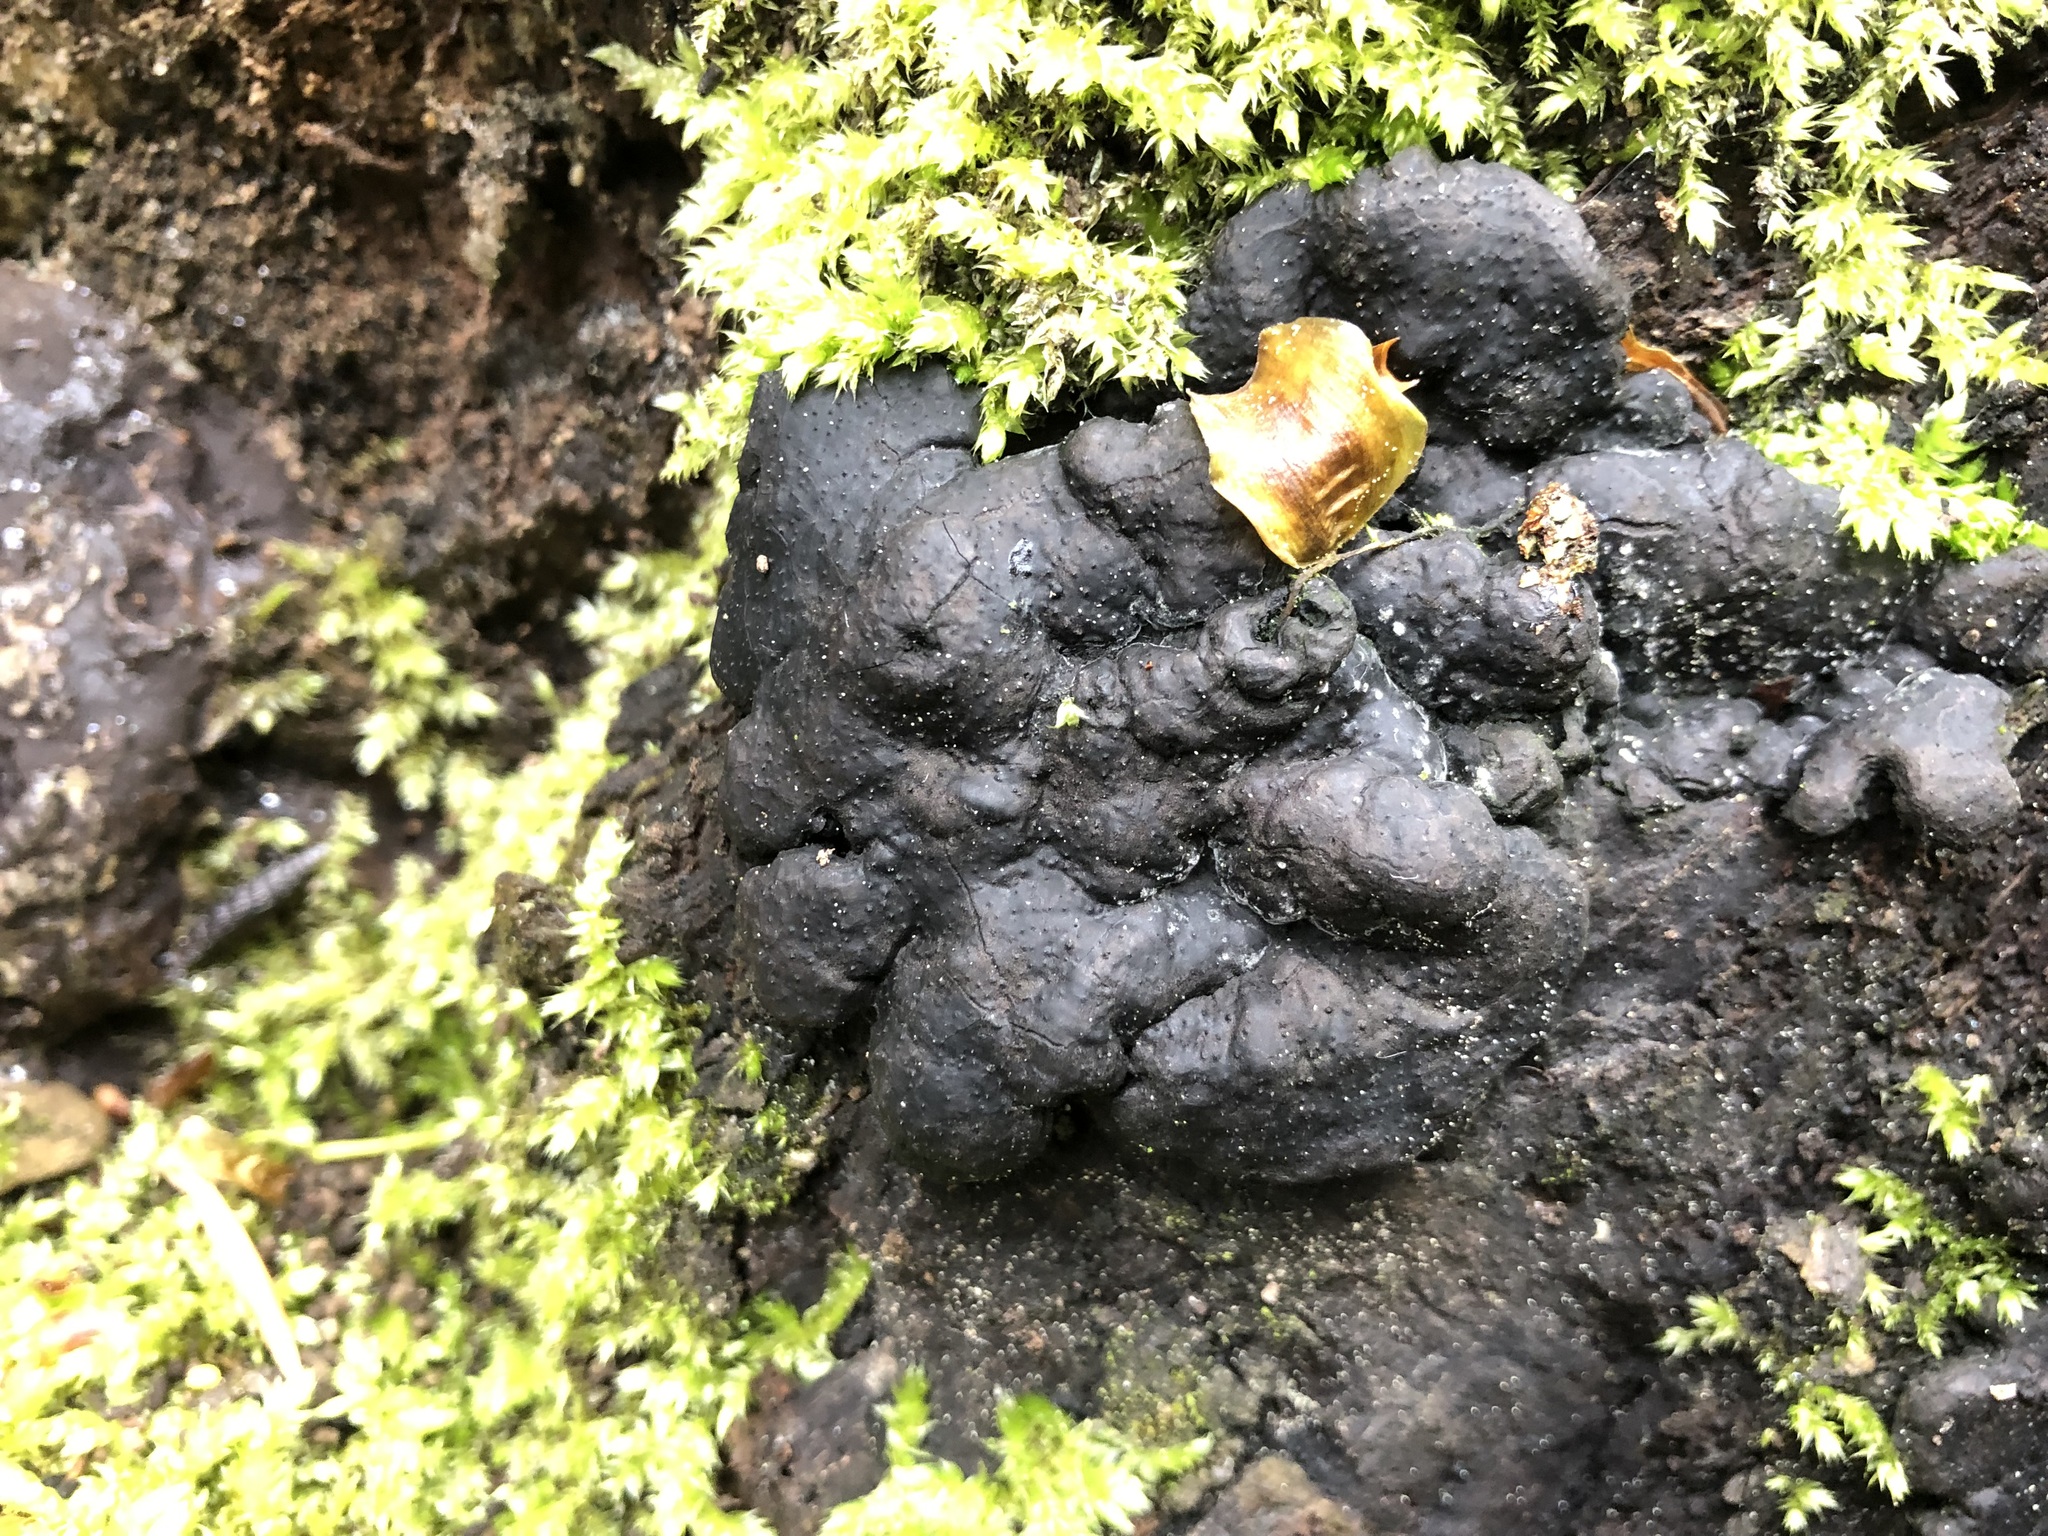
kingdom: Fungi
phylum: Ascomycota
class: Sordariomycetes
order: Xylariales
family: Xylariaceae
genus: Kretzschmaria
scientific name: Kretzschmaria deusta
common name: Brittle cinder
